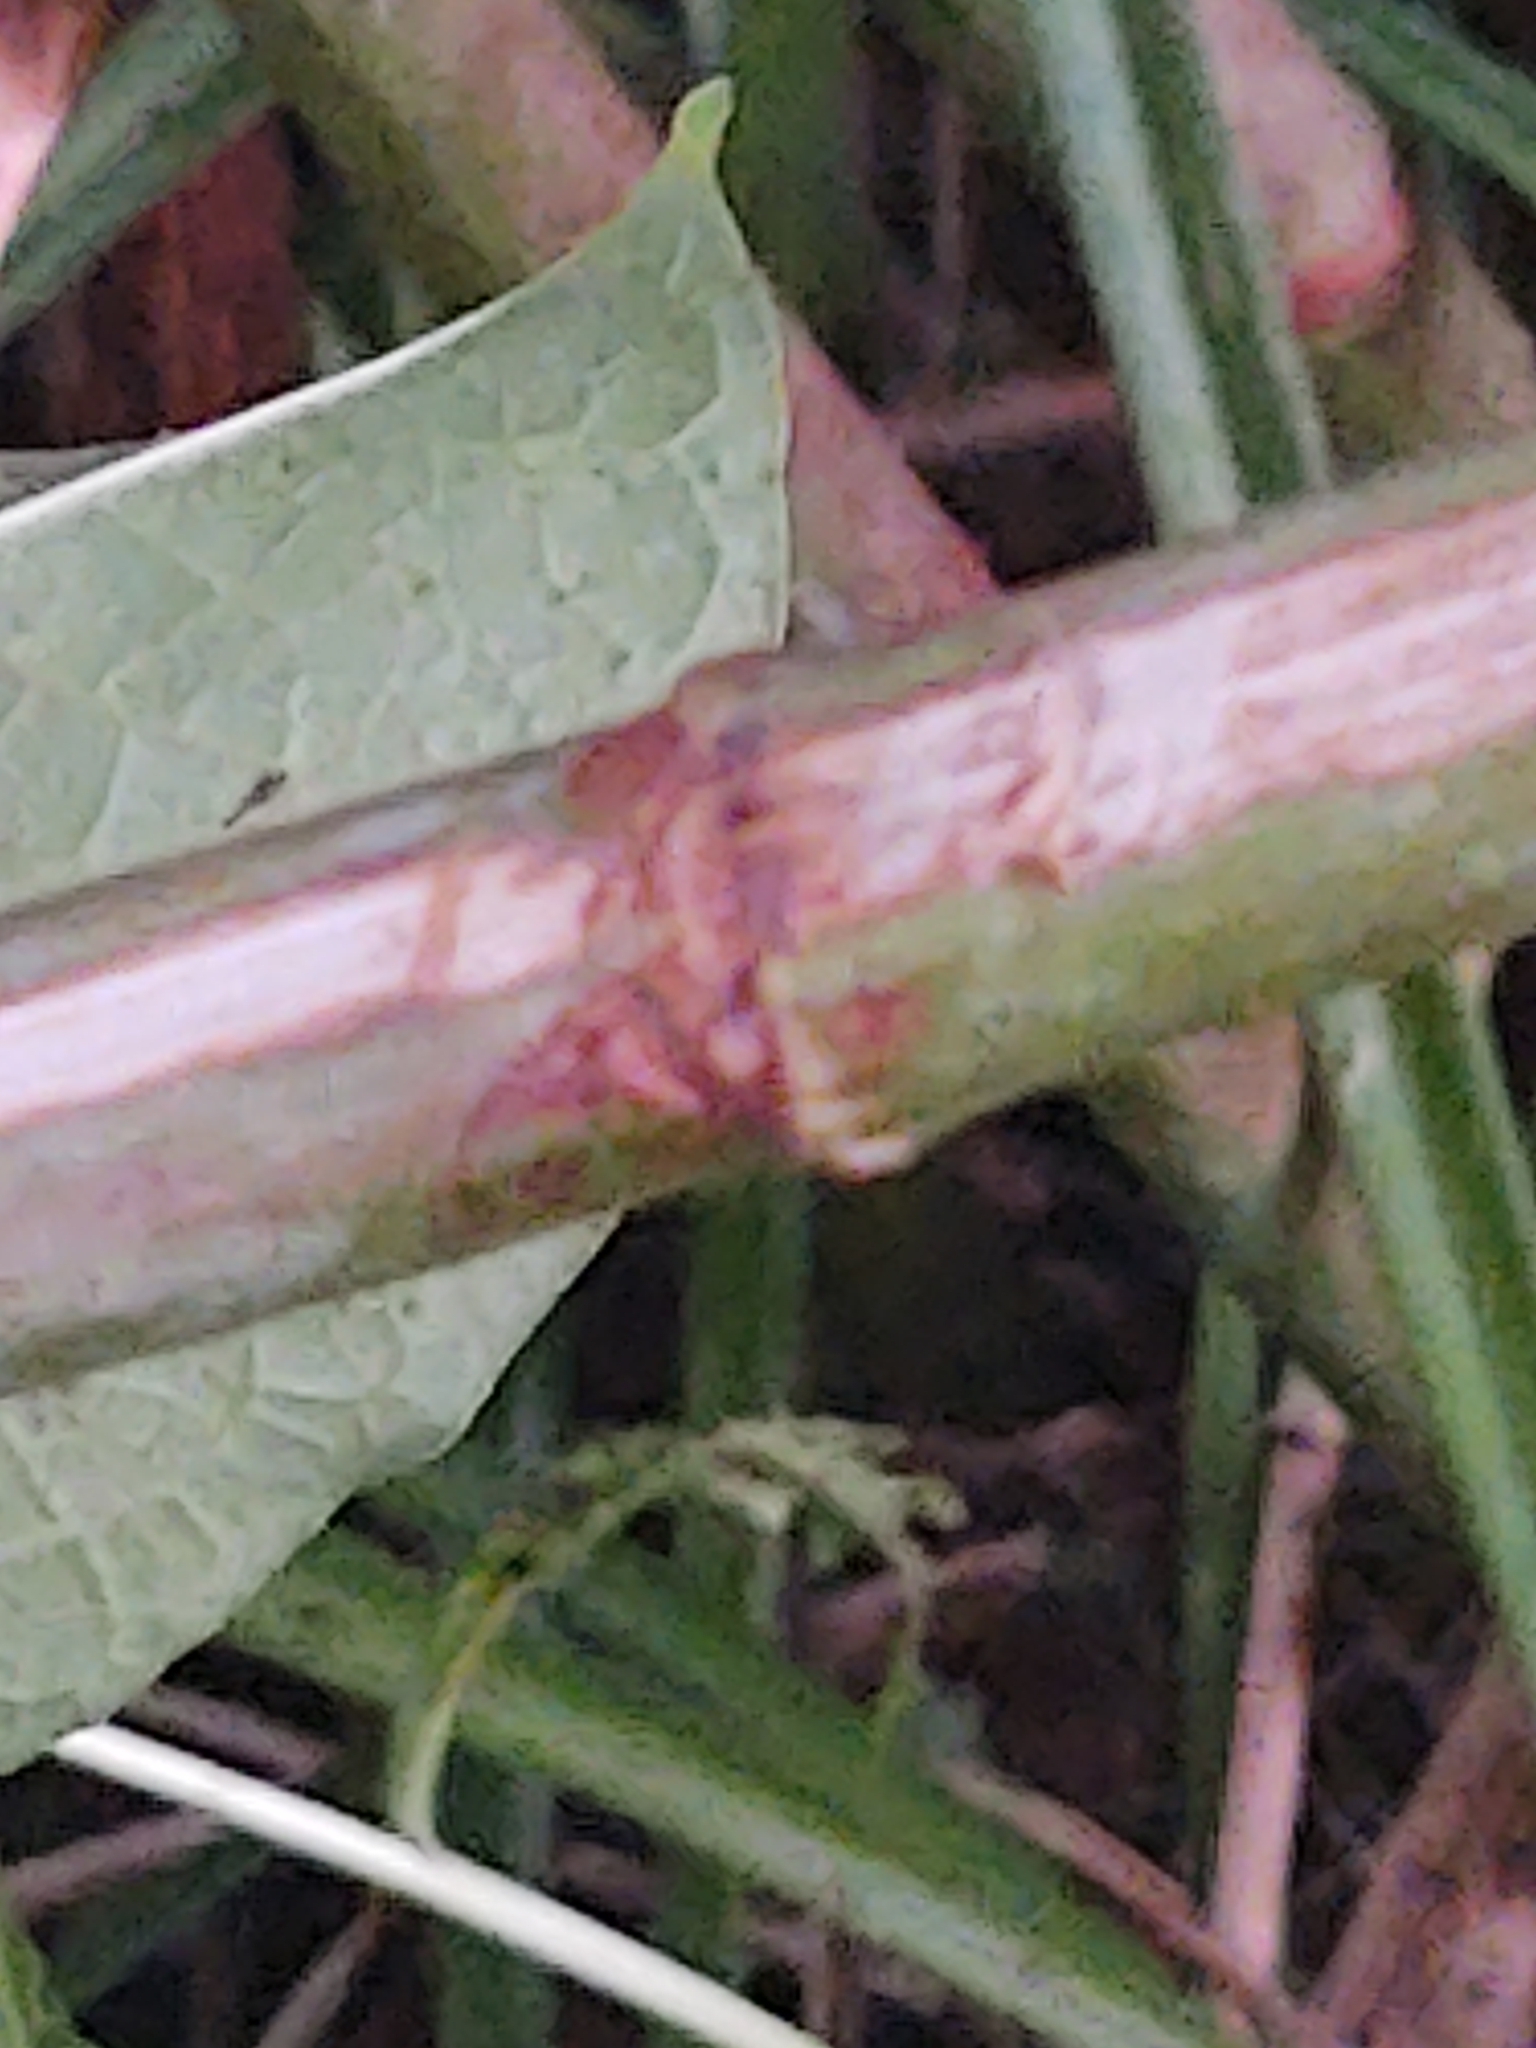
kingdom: Plantae
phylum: Tracheophyta
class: Magnoliopsida
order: Caryophyllales
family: Polygonaceae
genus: Reynoutria
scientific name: Reynoutria japonica
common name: Japanese knotweed
